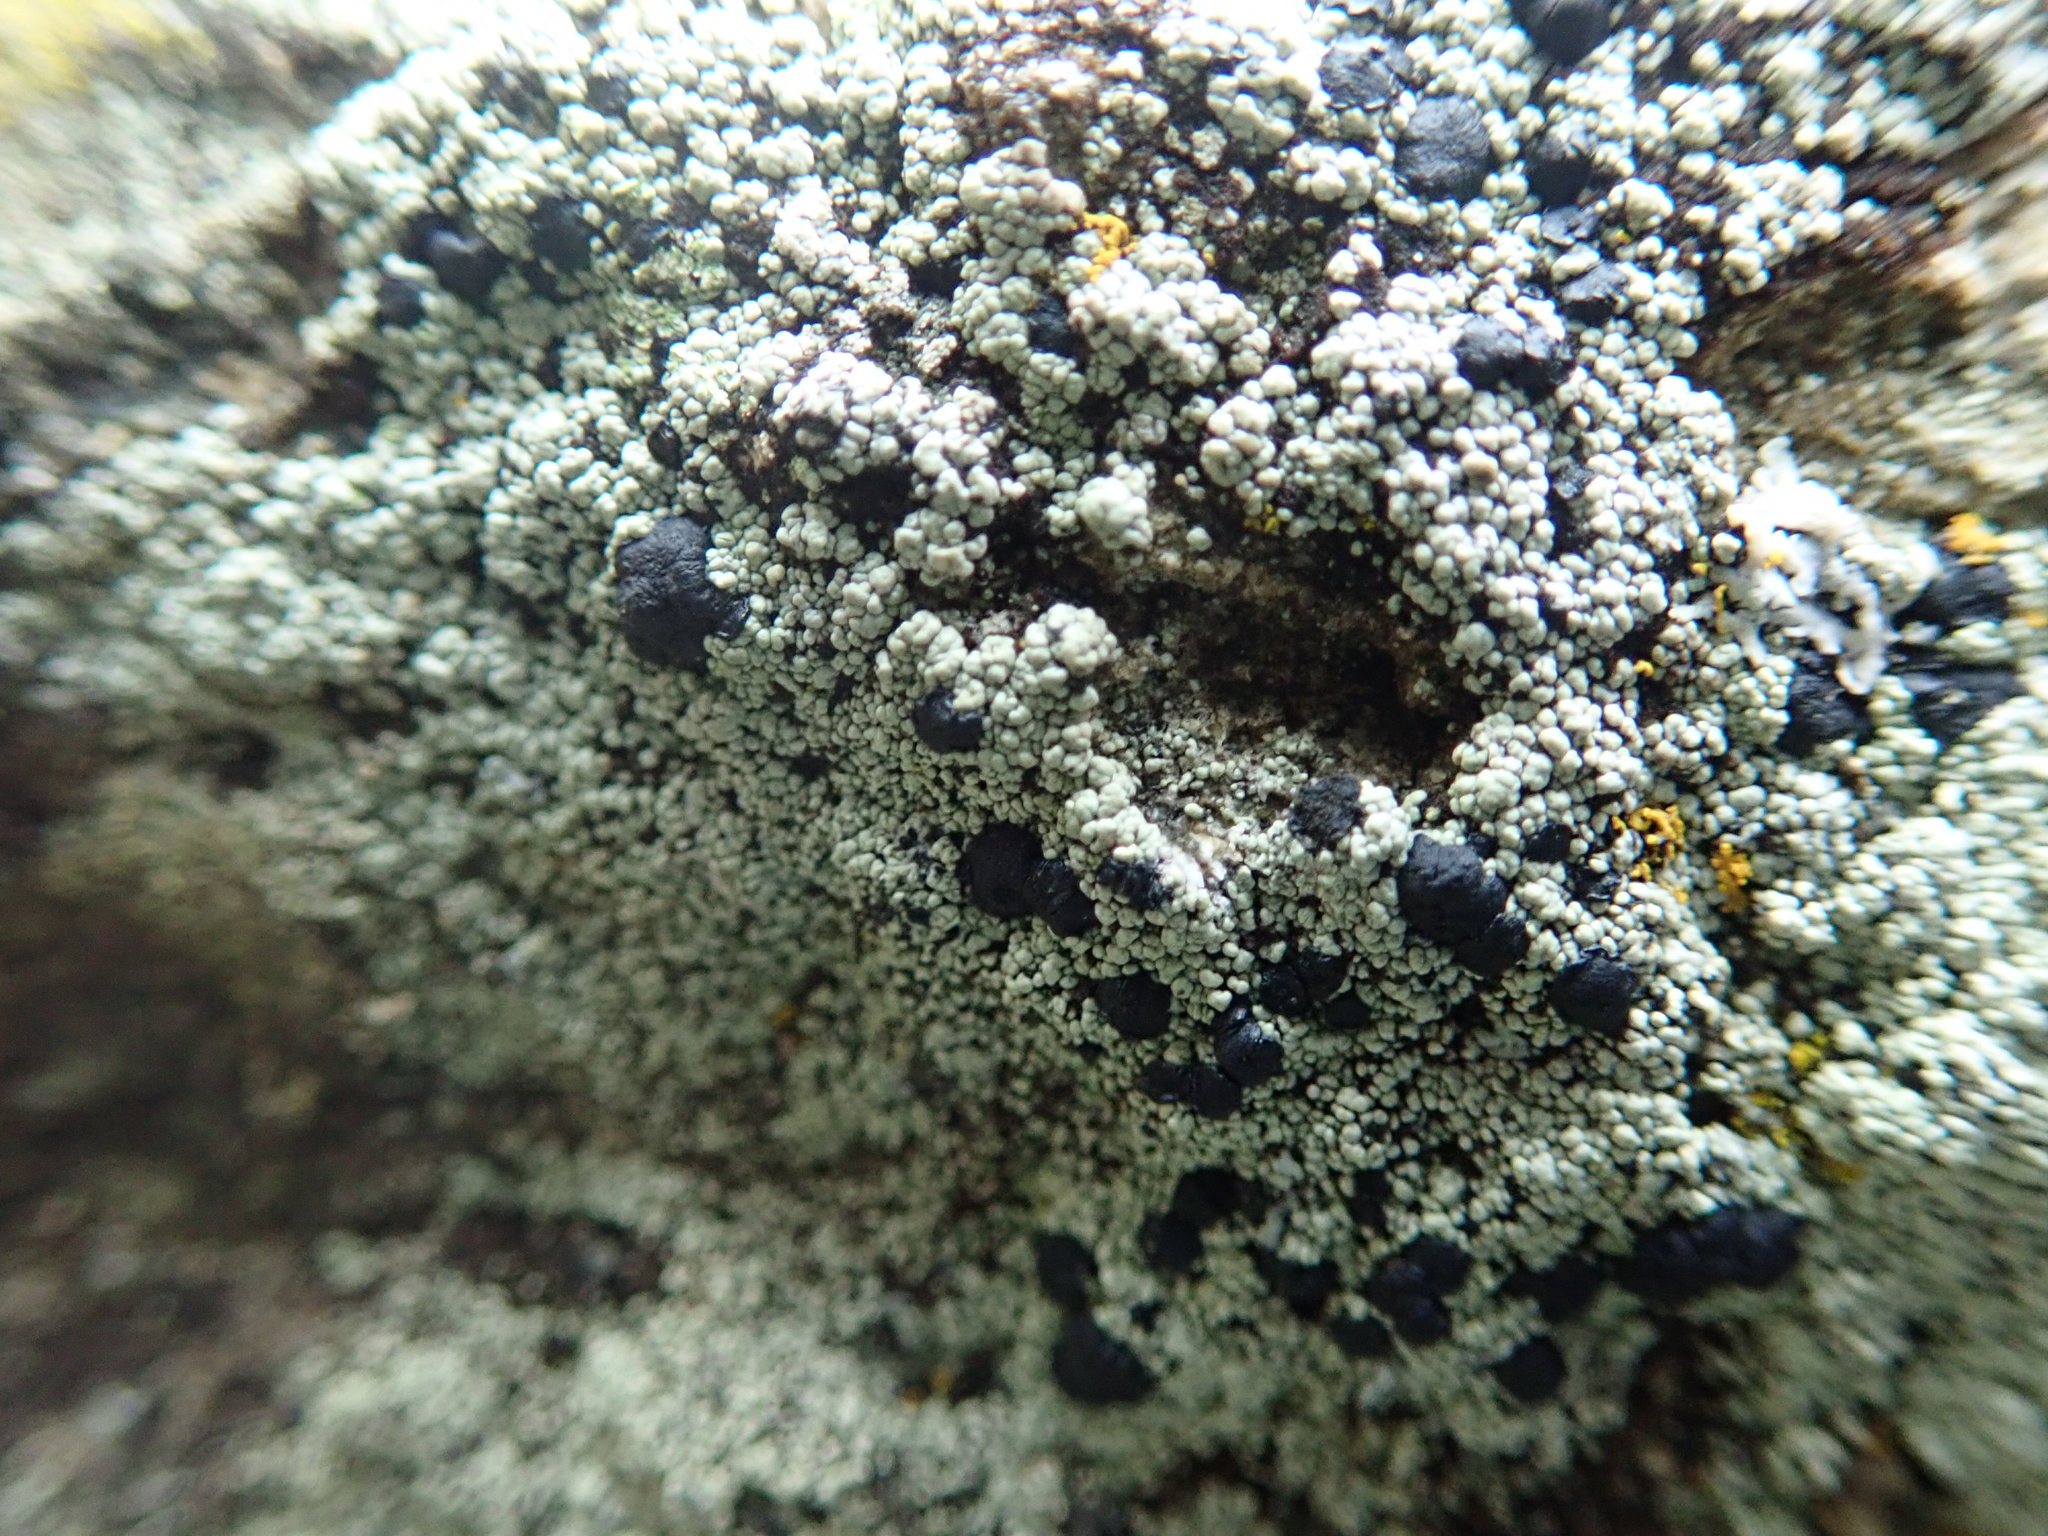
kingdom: Fungi
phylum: Ascomycota
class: Lecanoromycetes
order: Lecanorales
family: Lecanoraceae
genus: Lecidella
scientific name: Lecidella asema
